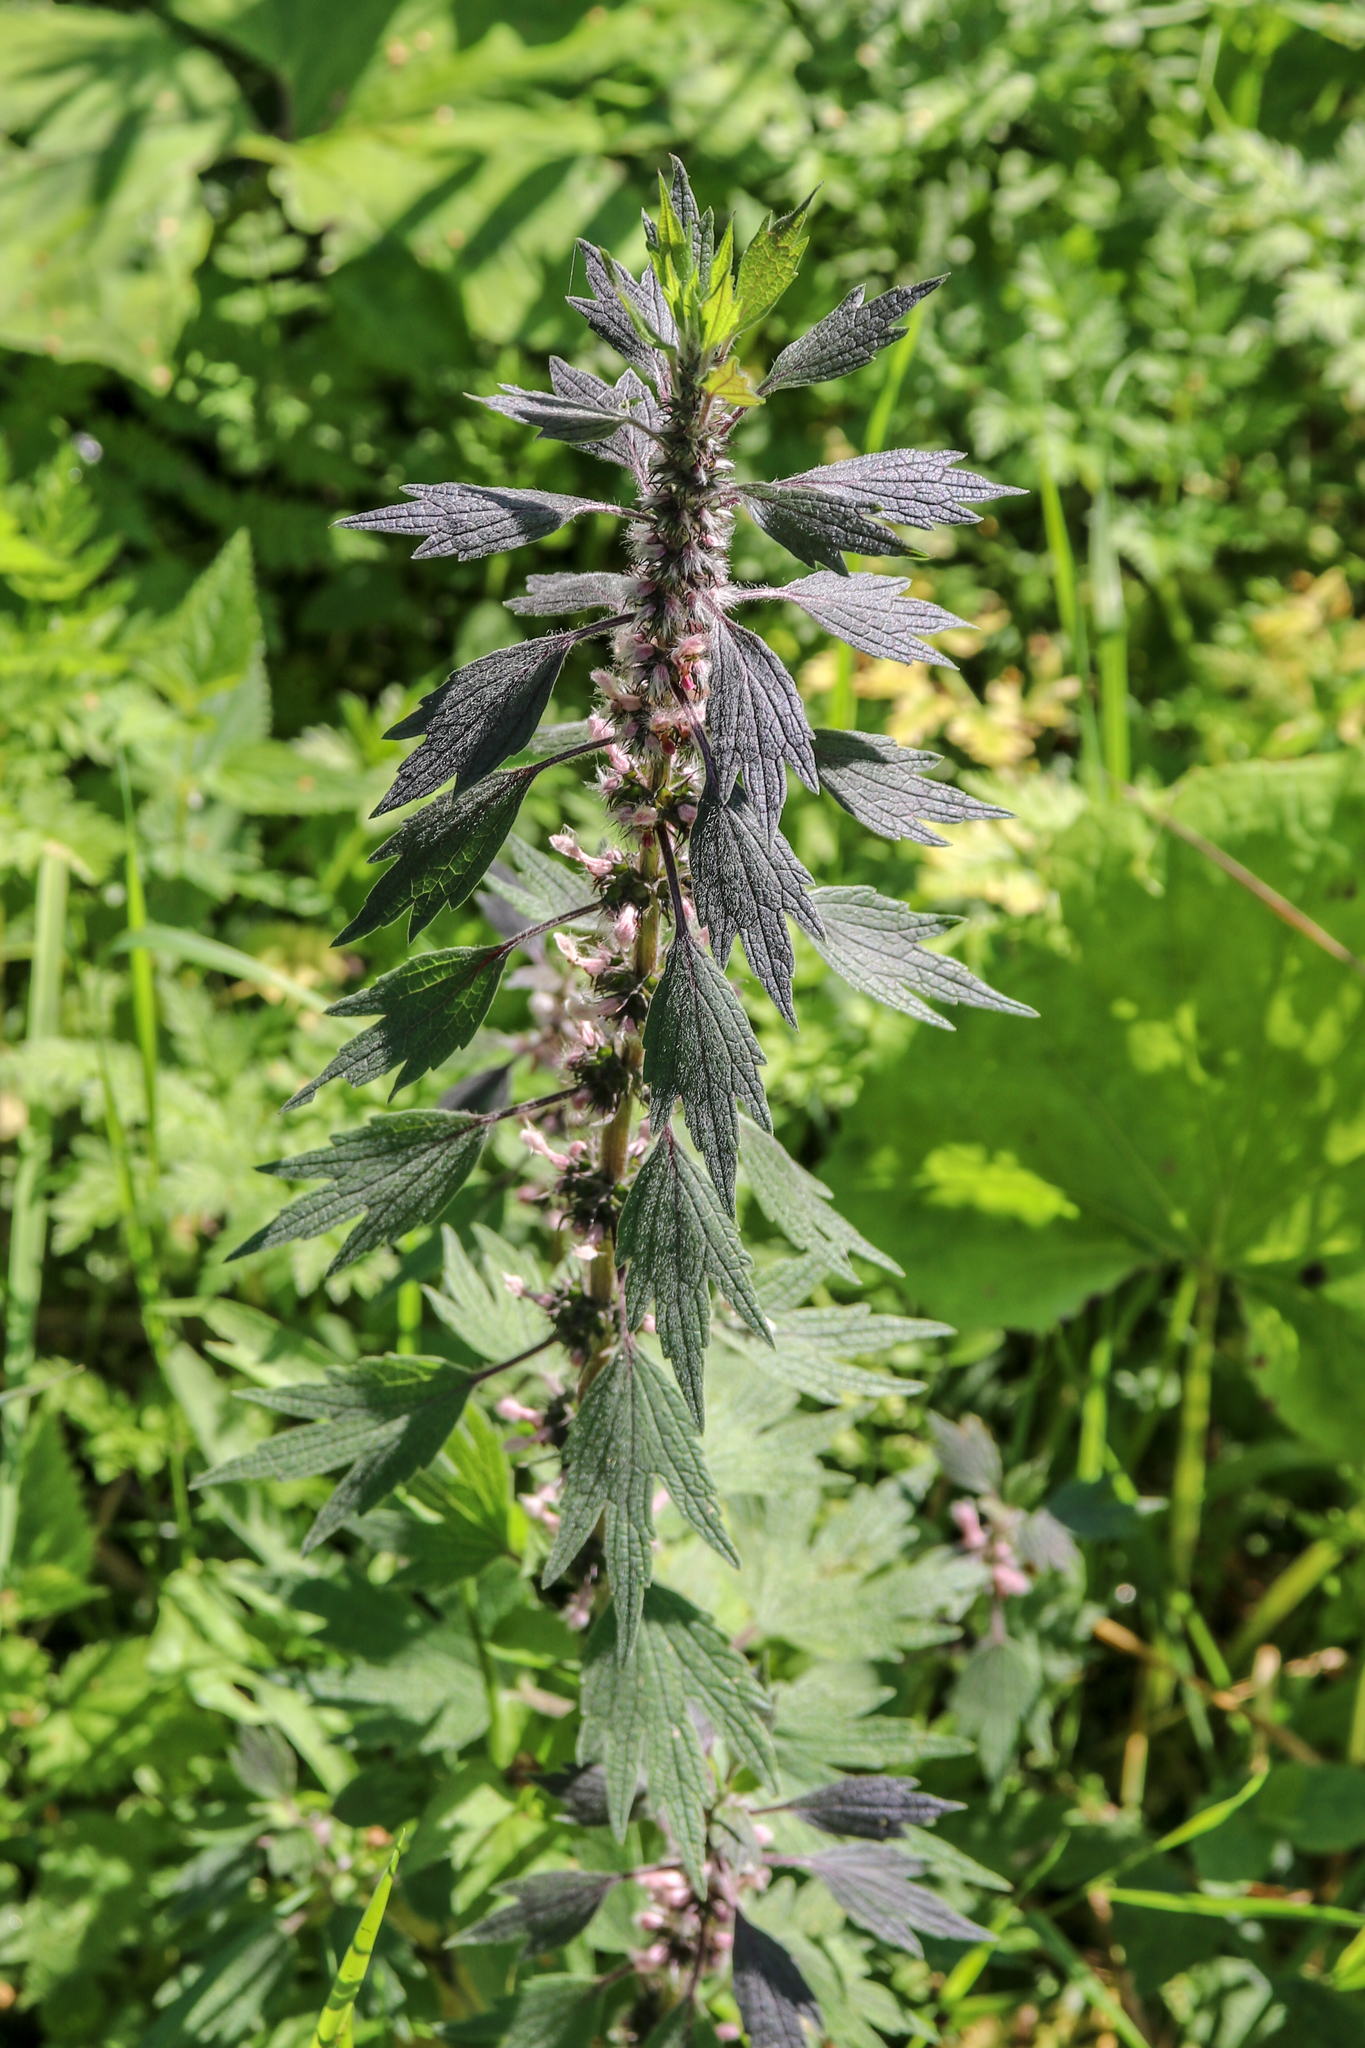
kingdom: Plantae
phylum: Tracheophyta
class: Magnoliopsida
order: Lamiales
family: Lamiaceae
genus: Leonurus
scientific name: Leonurus quinquelobatus
